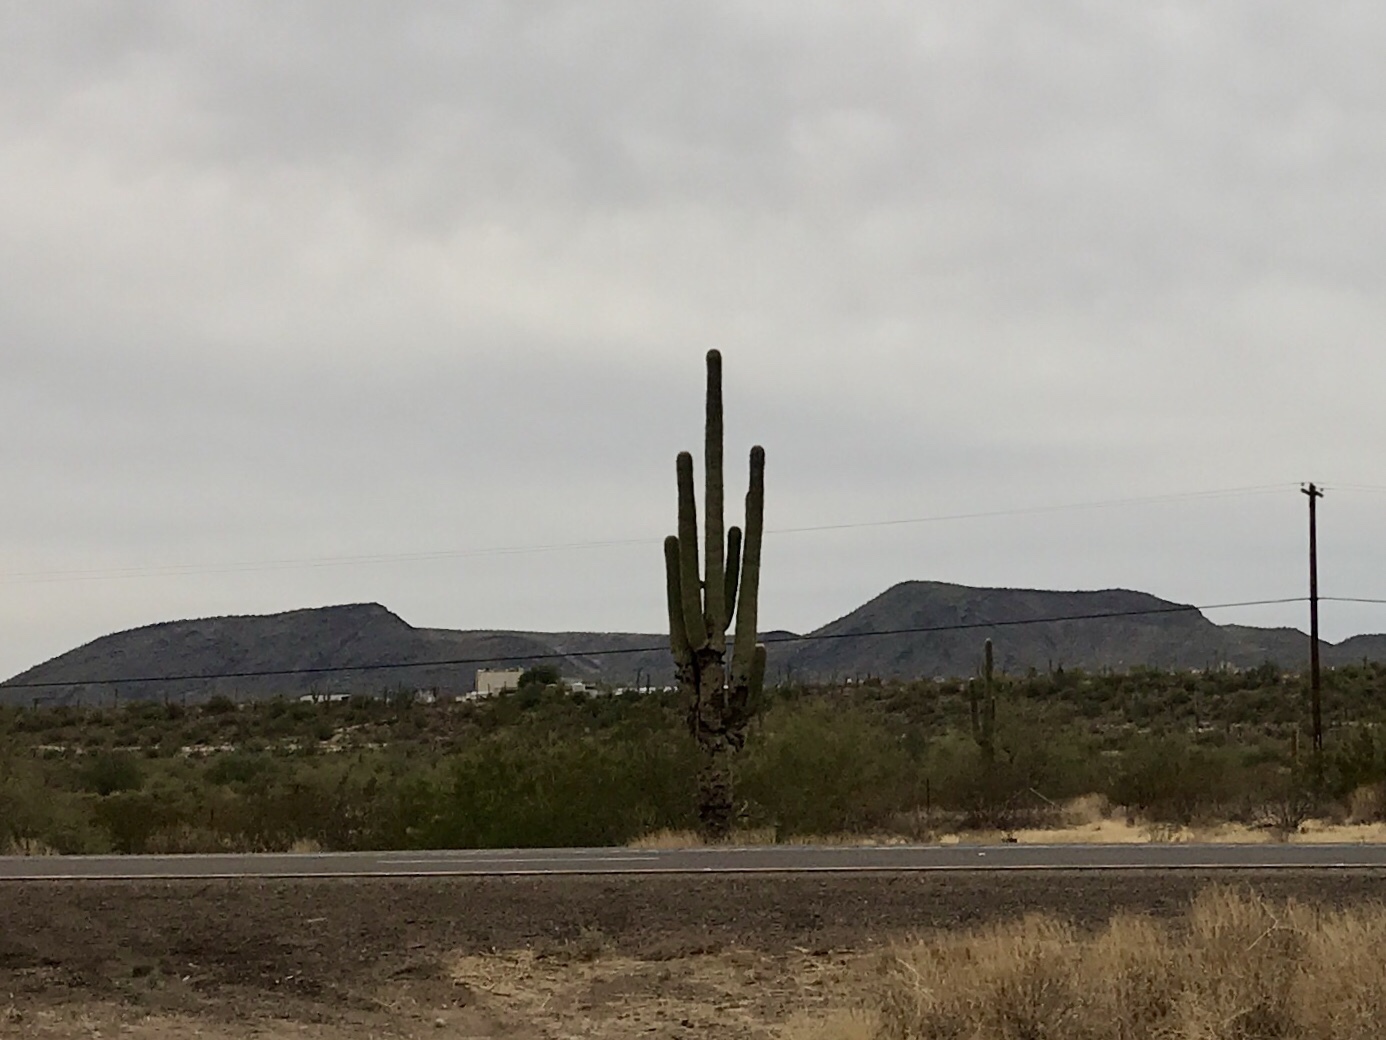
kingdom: Plantae
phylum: Tracheophyta
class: Magnoliopsida
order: Caryophyllales
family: Cactaceae
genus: Carnegiea
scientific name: Carnegiea gigantea
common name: Saguaro
